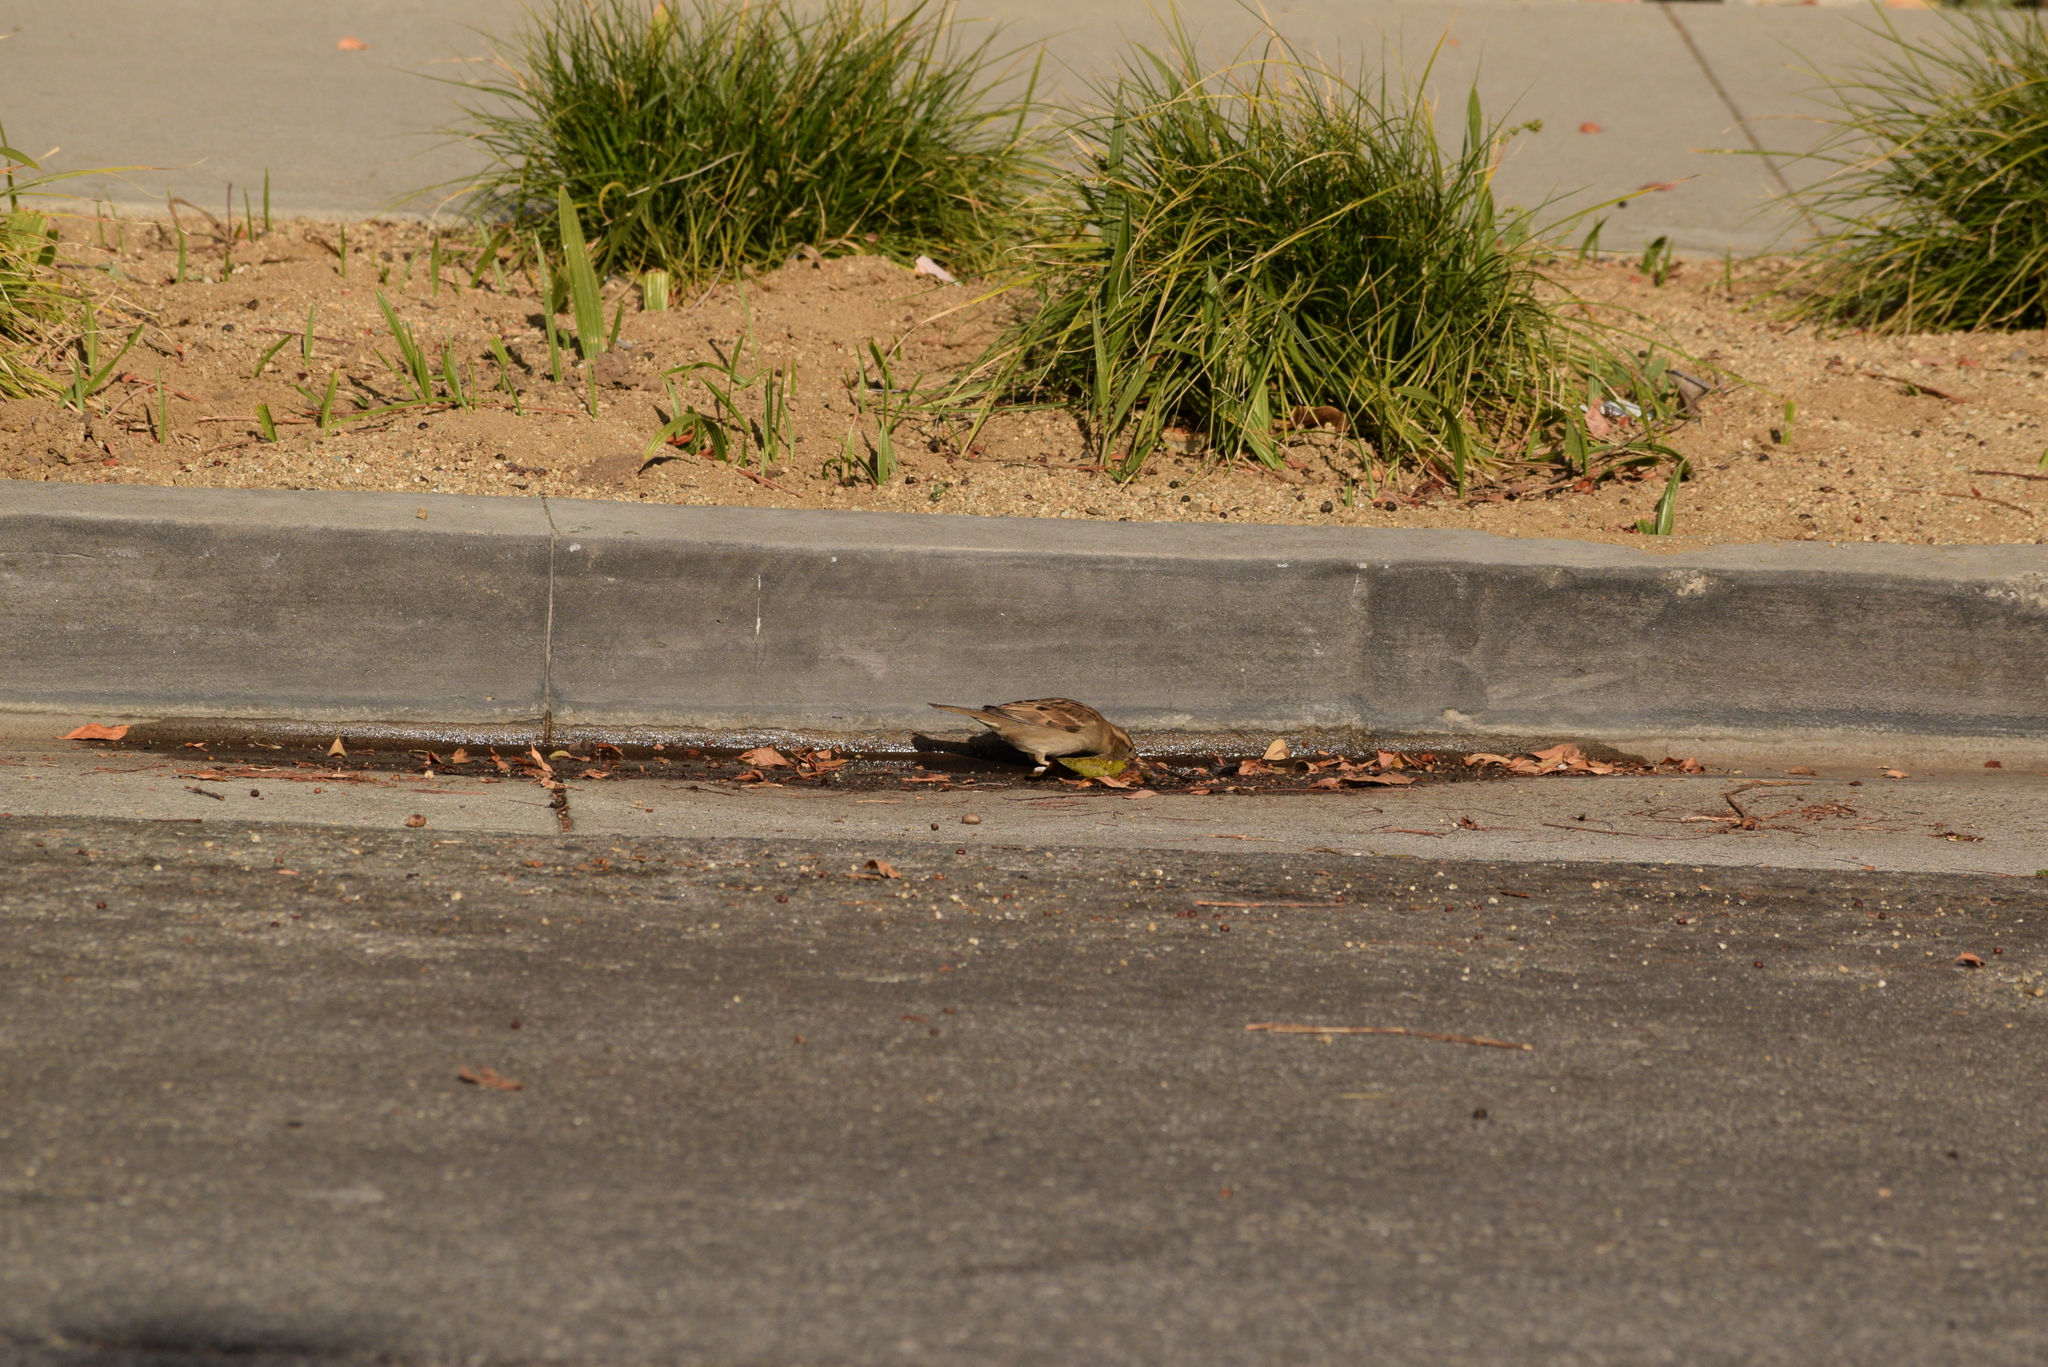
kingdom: Animalia
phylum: Chordata
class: Aves
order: Passeriformes
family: Passeridae
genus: Passer
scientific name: Passer domesticus
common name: House sparrow
